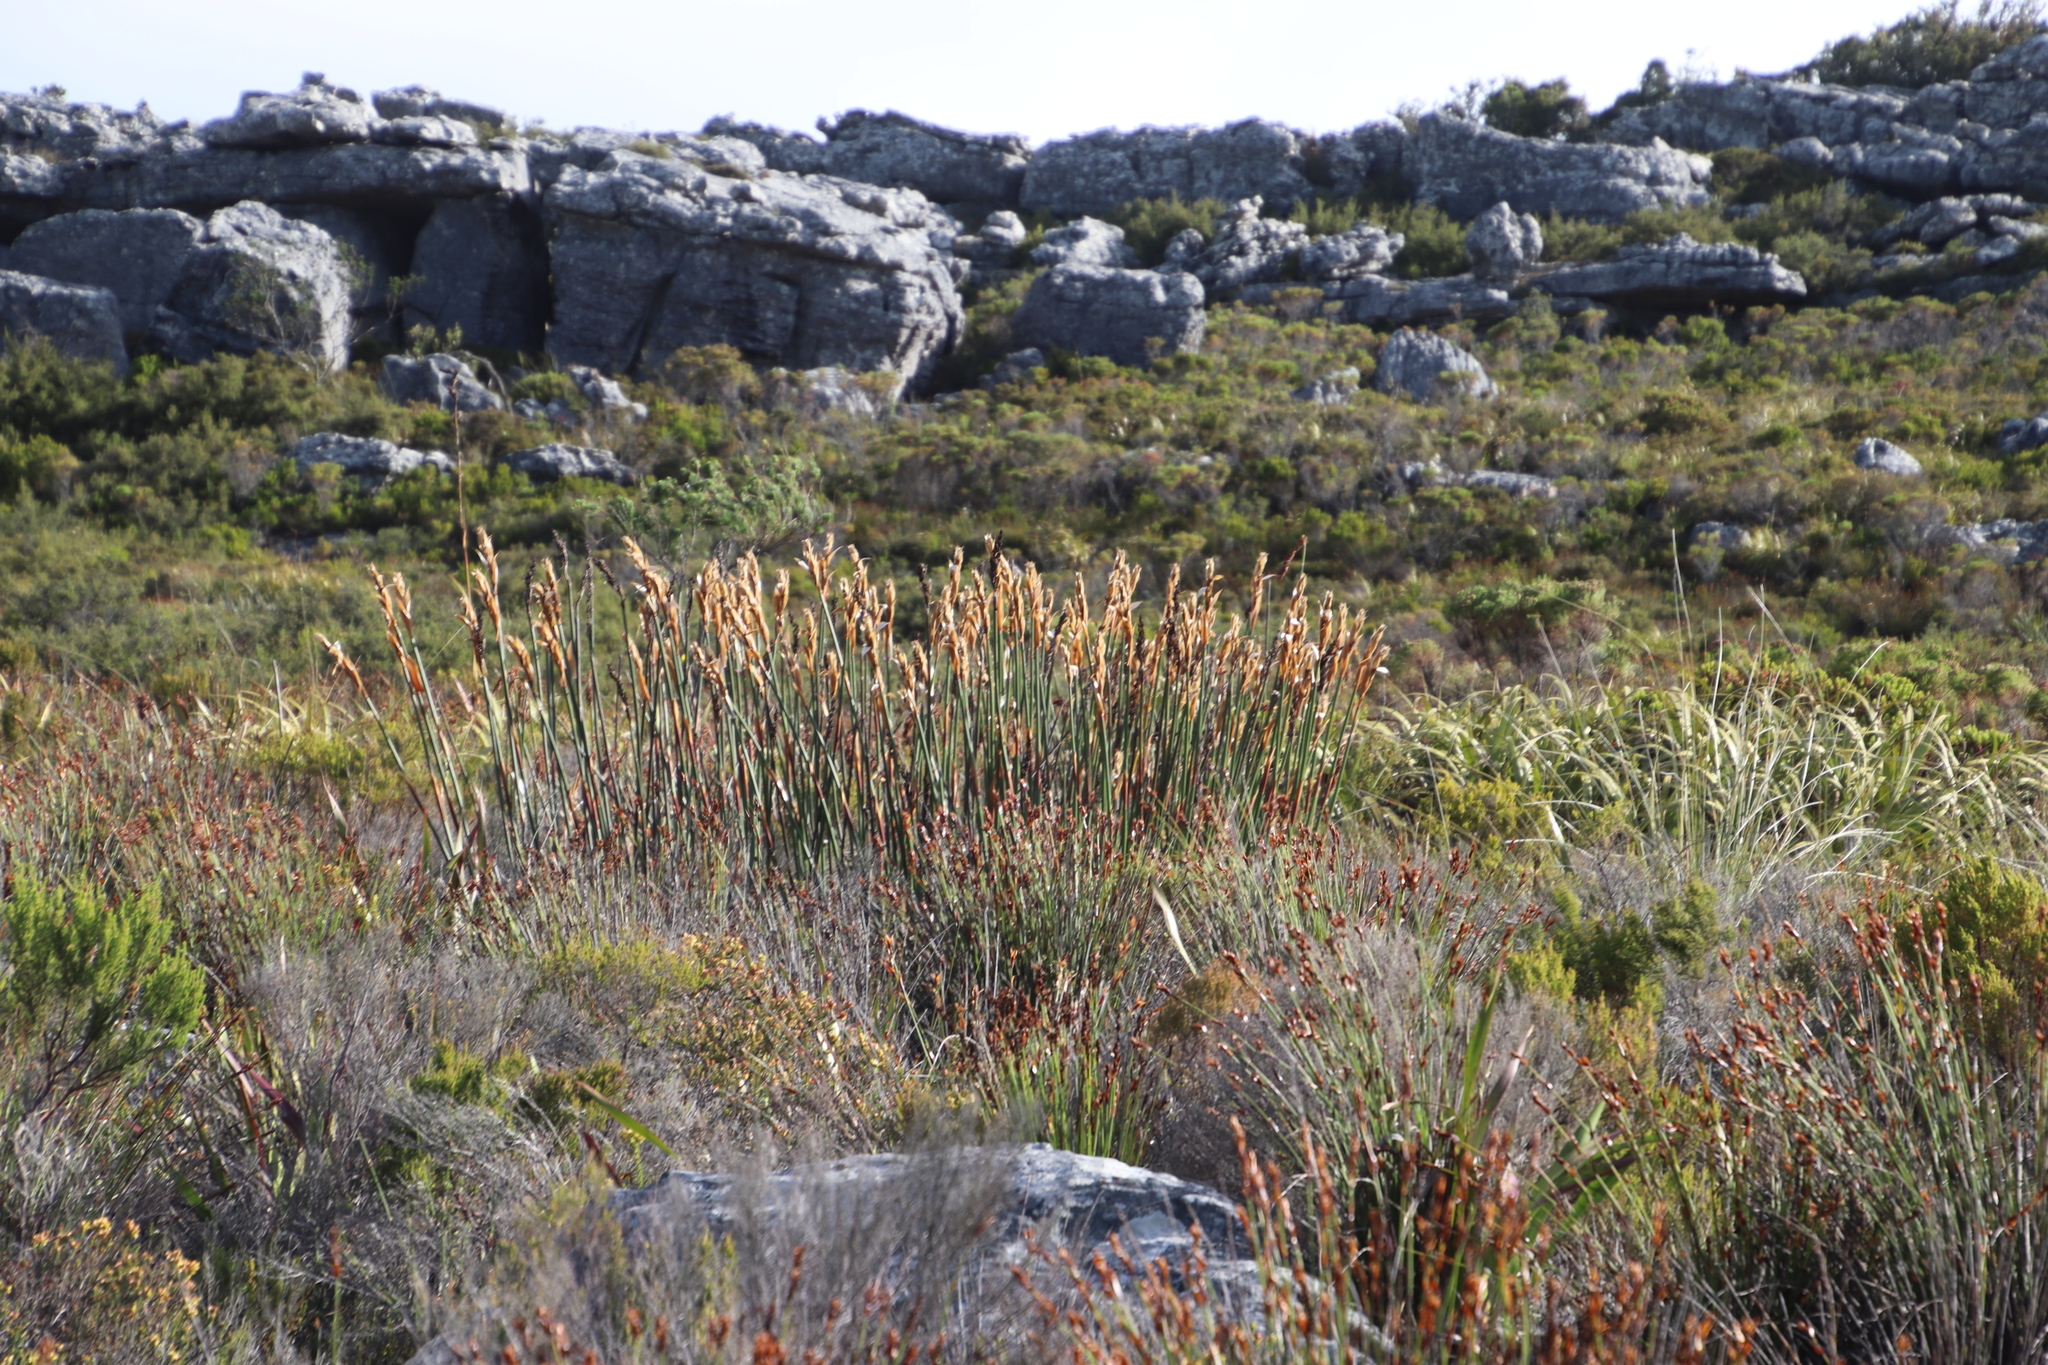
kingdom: Plantae
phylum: Tracheophyta
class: Liliopsida
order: Poales
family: Restionaceae
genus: Elegia
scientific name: Elegia mucronata
